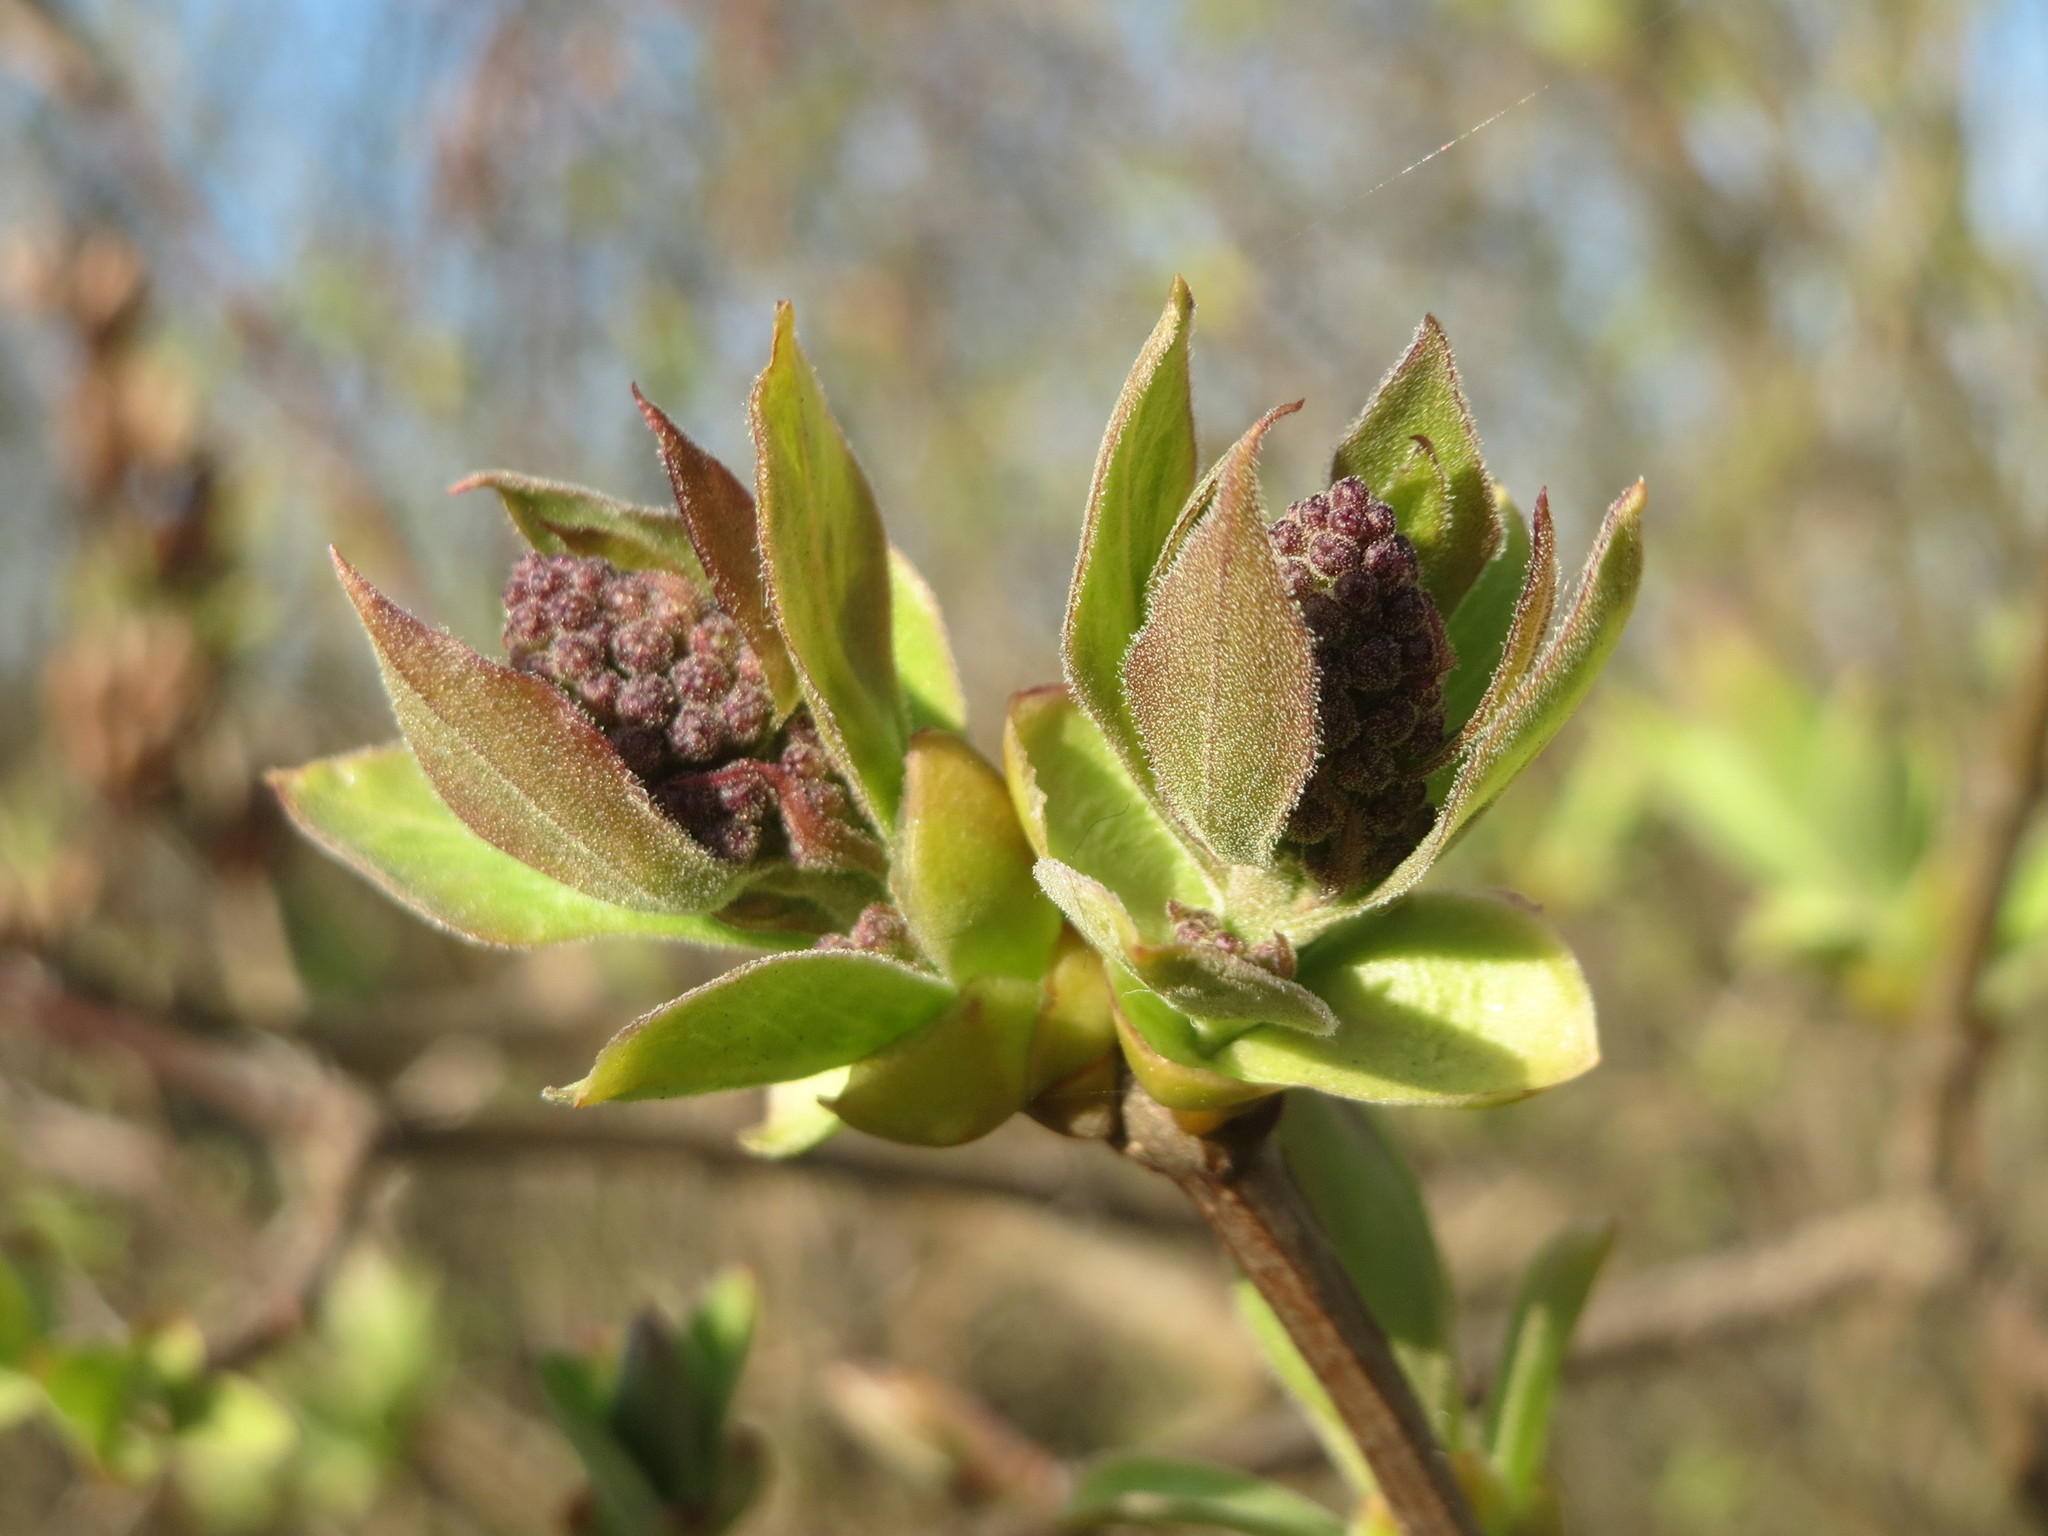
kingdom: Plantae
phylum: Tracheophyta
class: Magnoliopsida
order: Lamiales
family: Oleaceae
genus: Syringa
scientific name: Syringa vulgaris
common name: Common lilac
